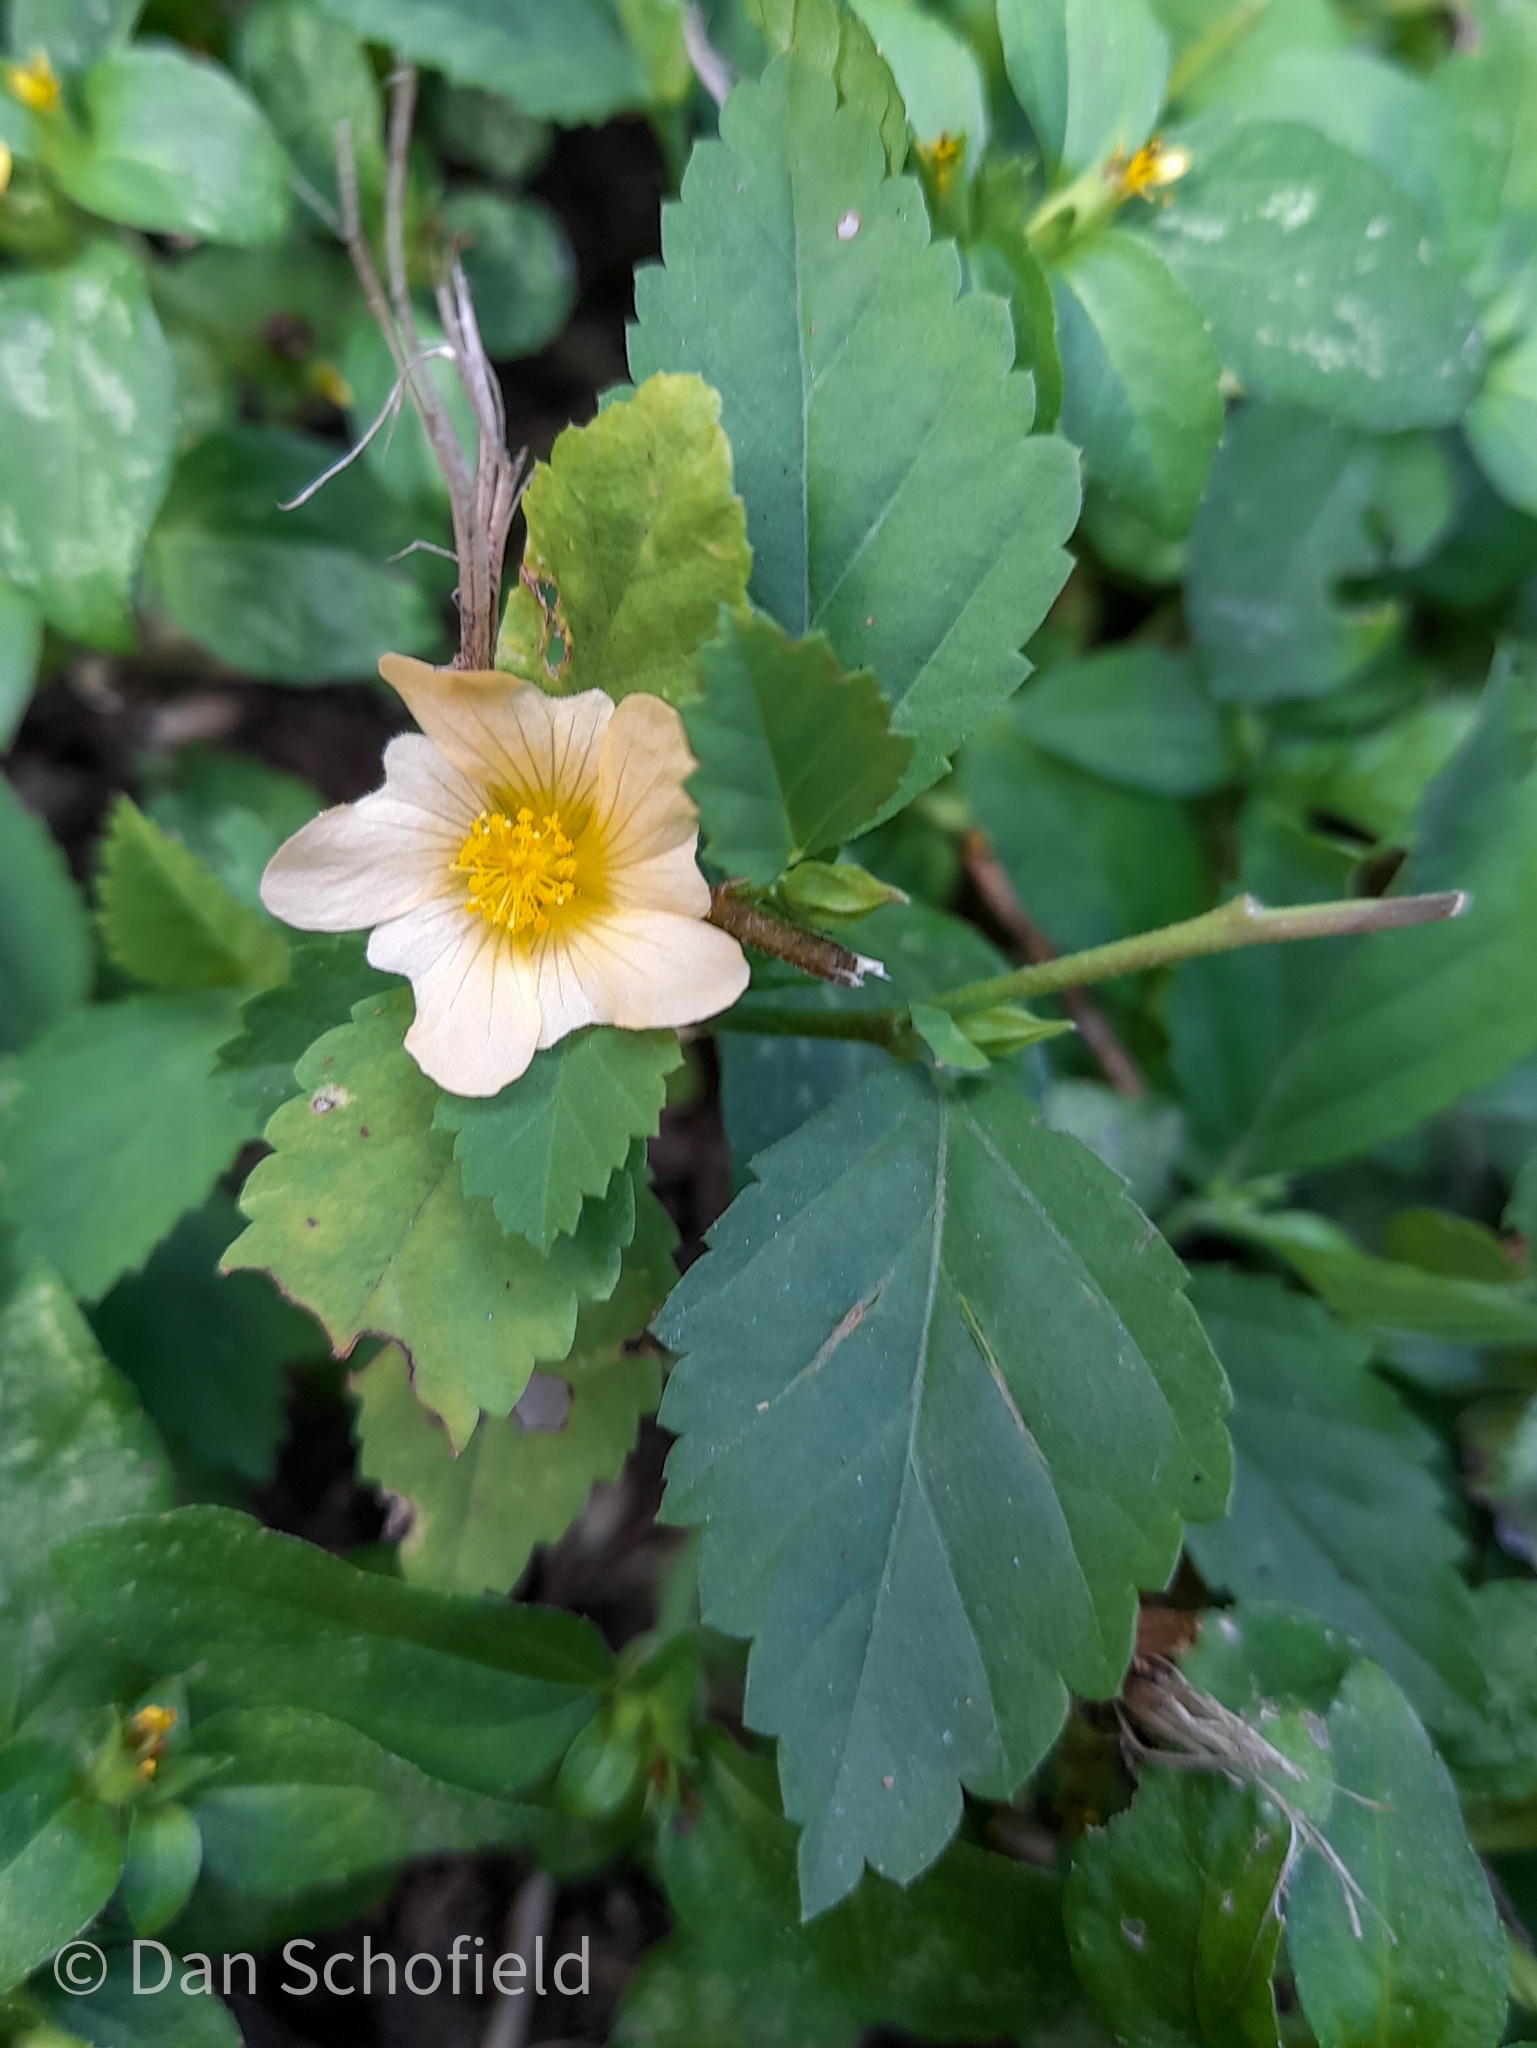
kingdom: Plantae
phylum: Tracheophyta
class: Magnoliopsida
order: Malvales
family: Malvaceae
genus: Sida
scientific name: Sida rhombifolia
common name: Queensland-hemp
